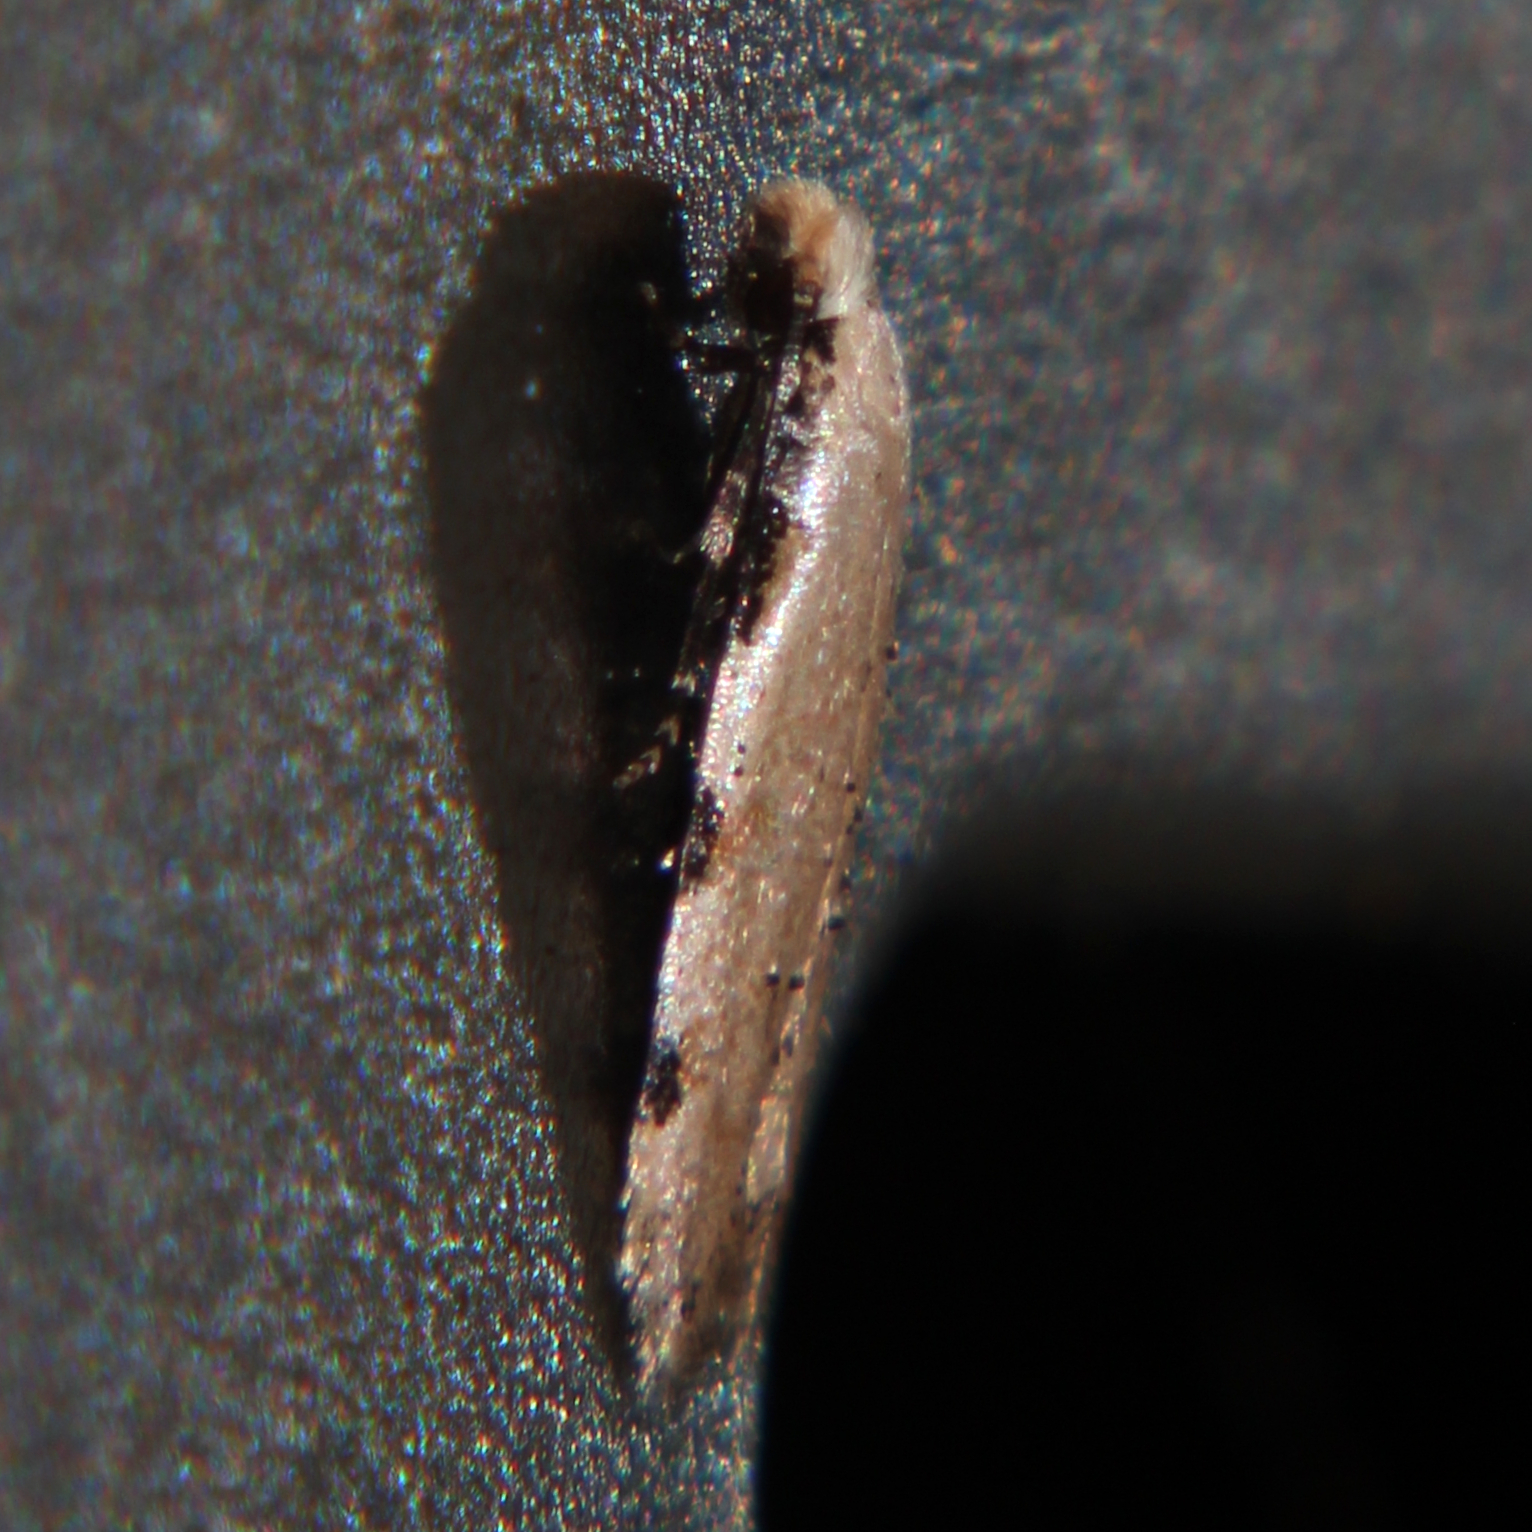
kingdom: Animalia
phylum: Arthropoda
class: Insecta
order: Lepidoptera
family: Tineidae
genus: Endophthora
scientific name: Endophthora omogramma
